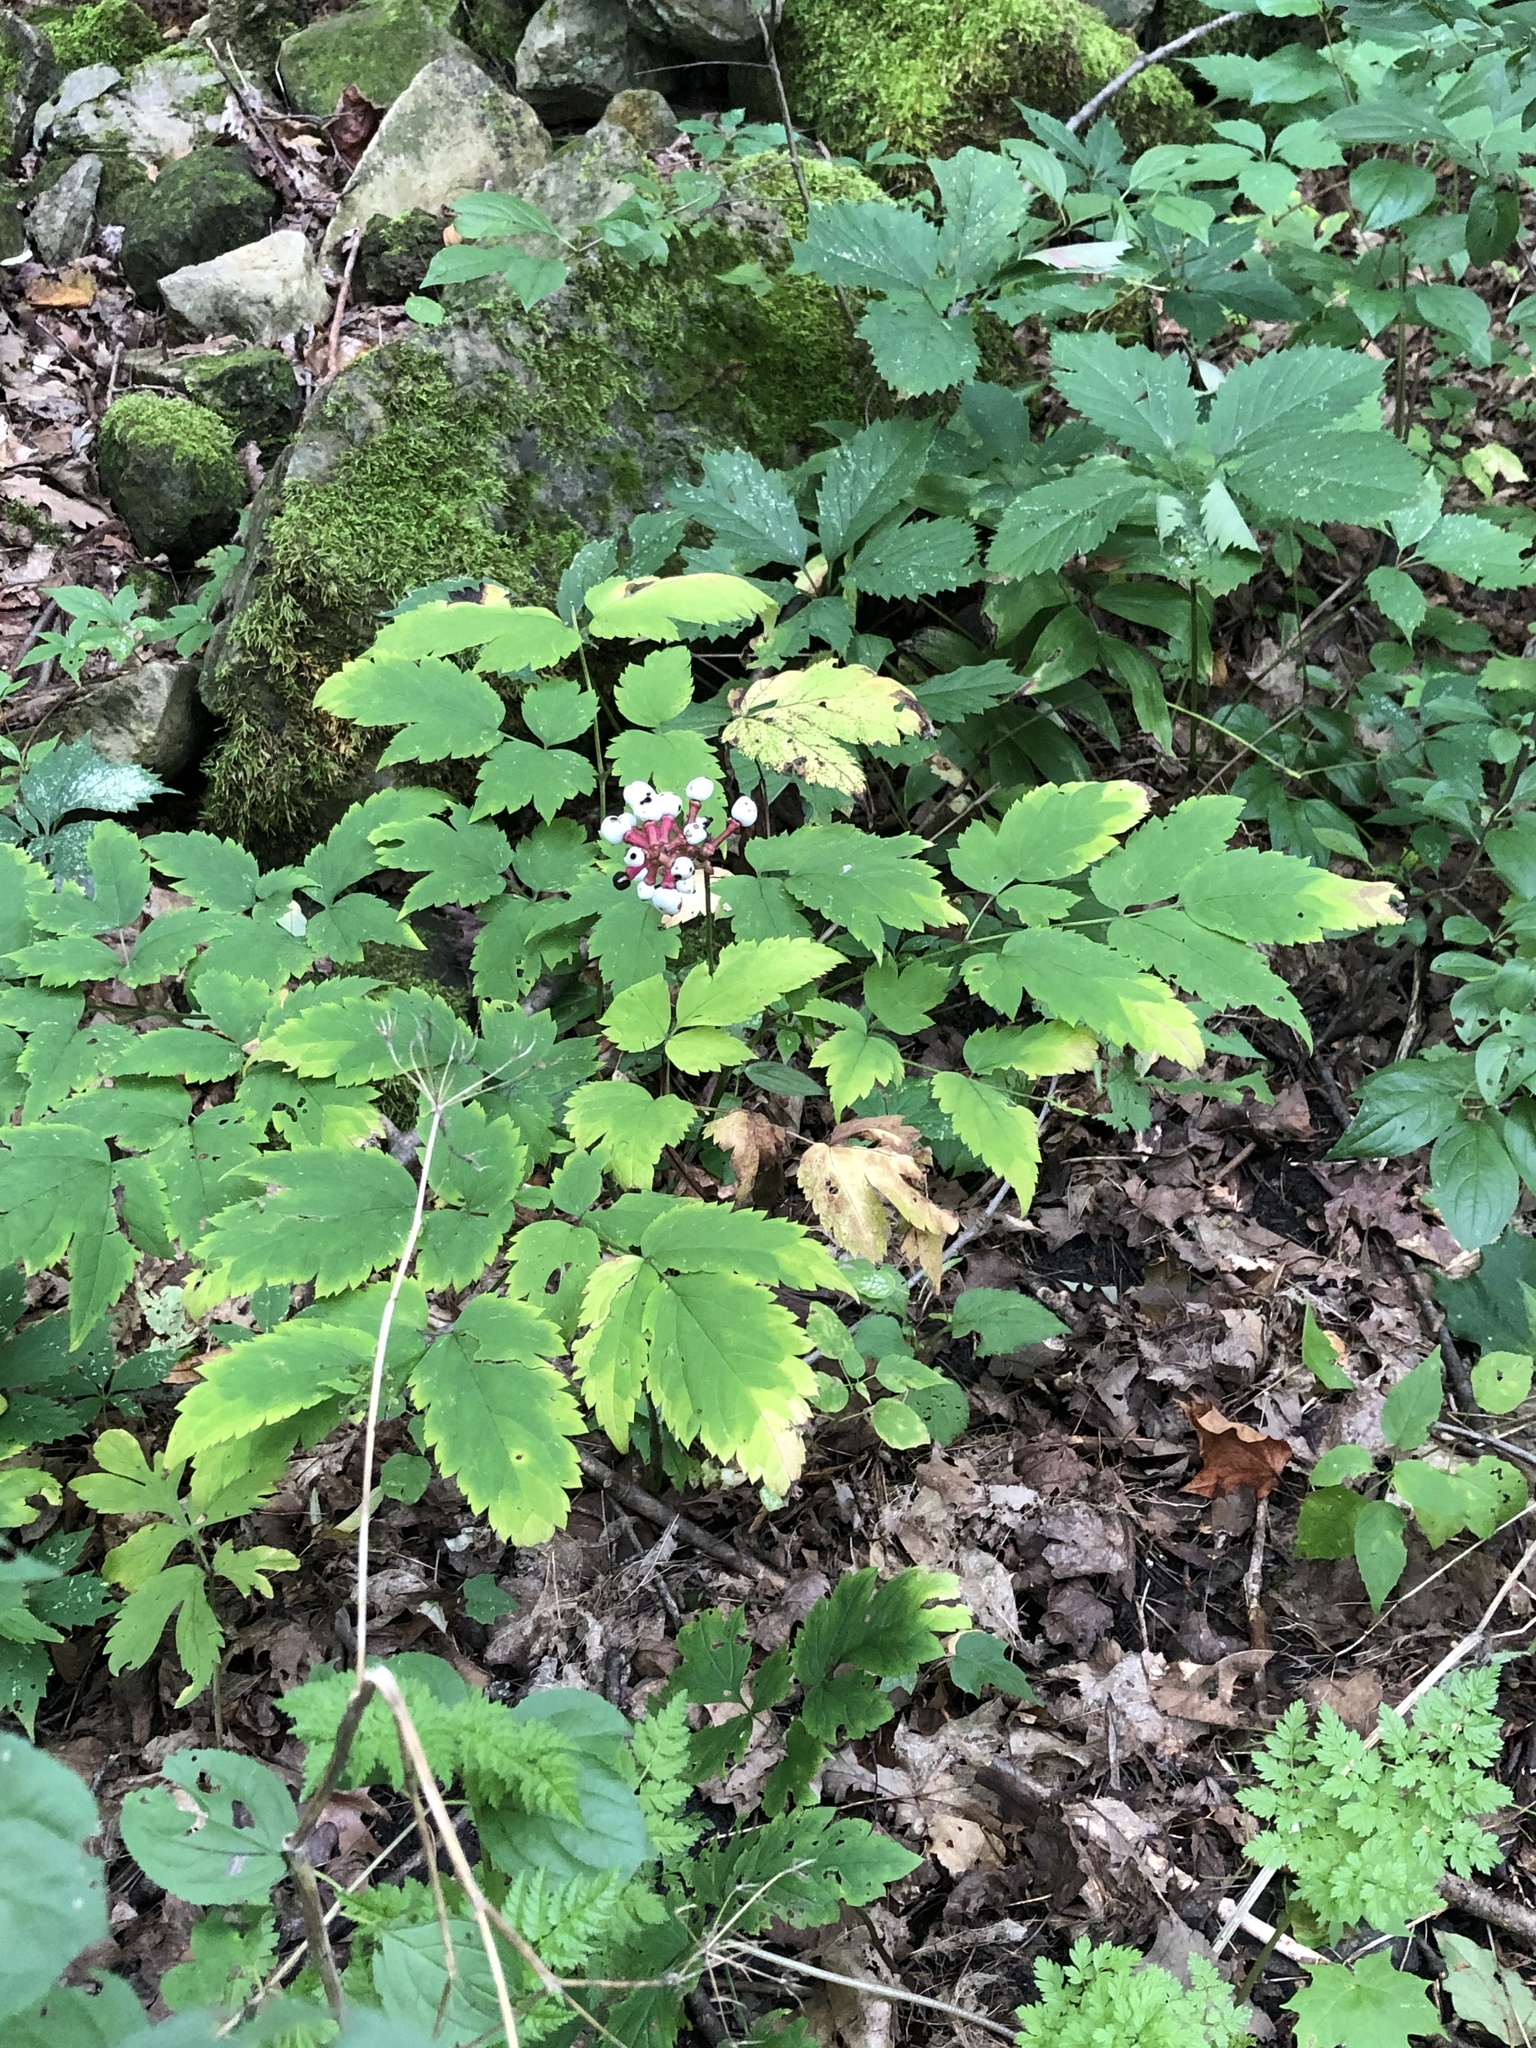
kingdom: Plantae
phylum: Tracheophyta
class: Magnoliopsida
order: Ranunculales
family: Ranunculaceae
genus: Actaea
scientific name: Actaea pachypoda
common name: Doll's-eyes
